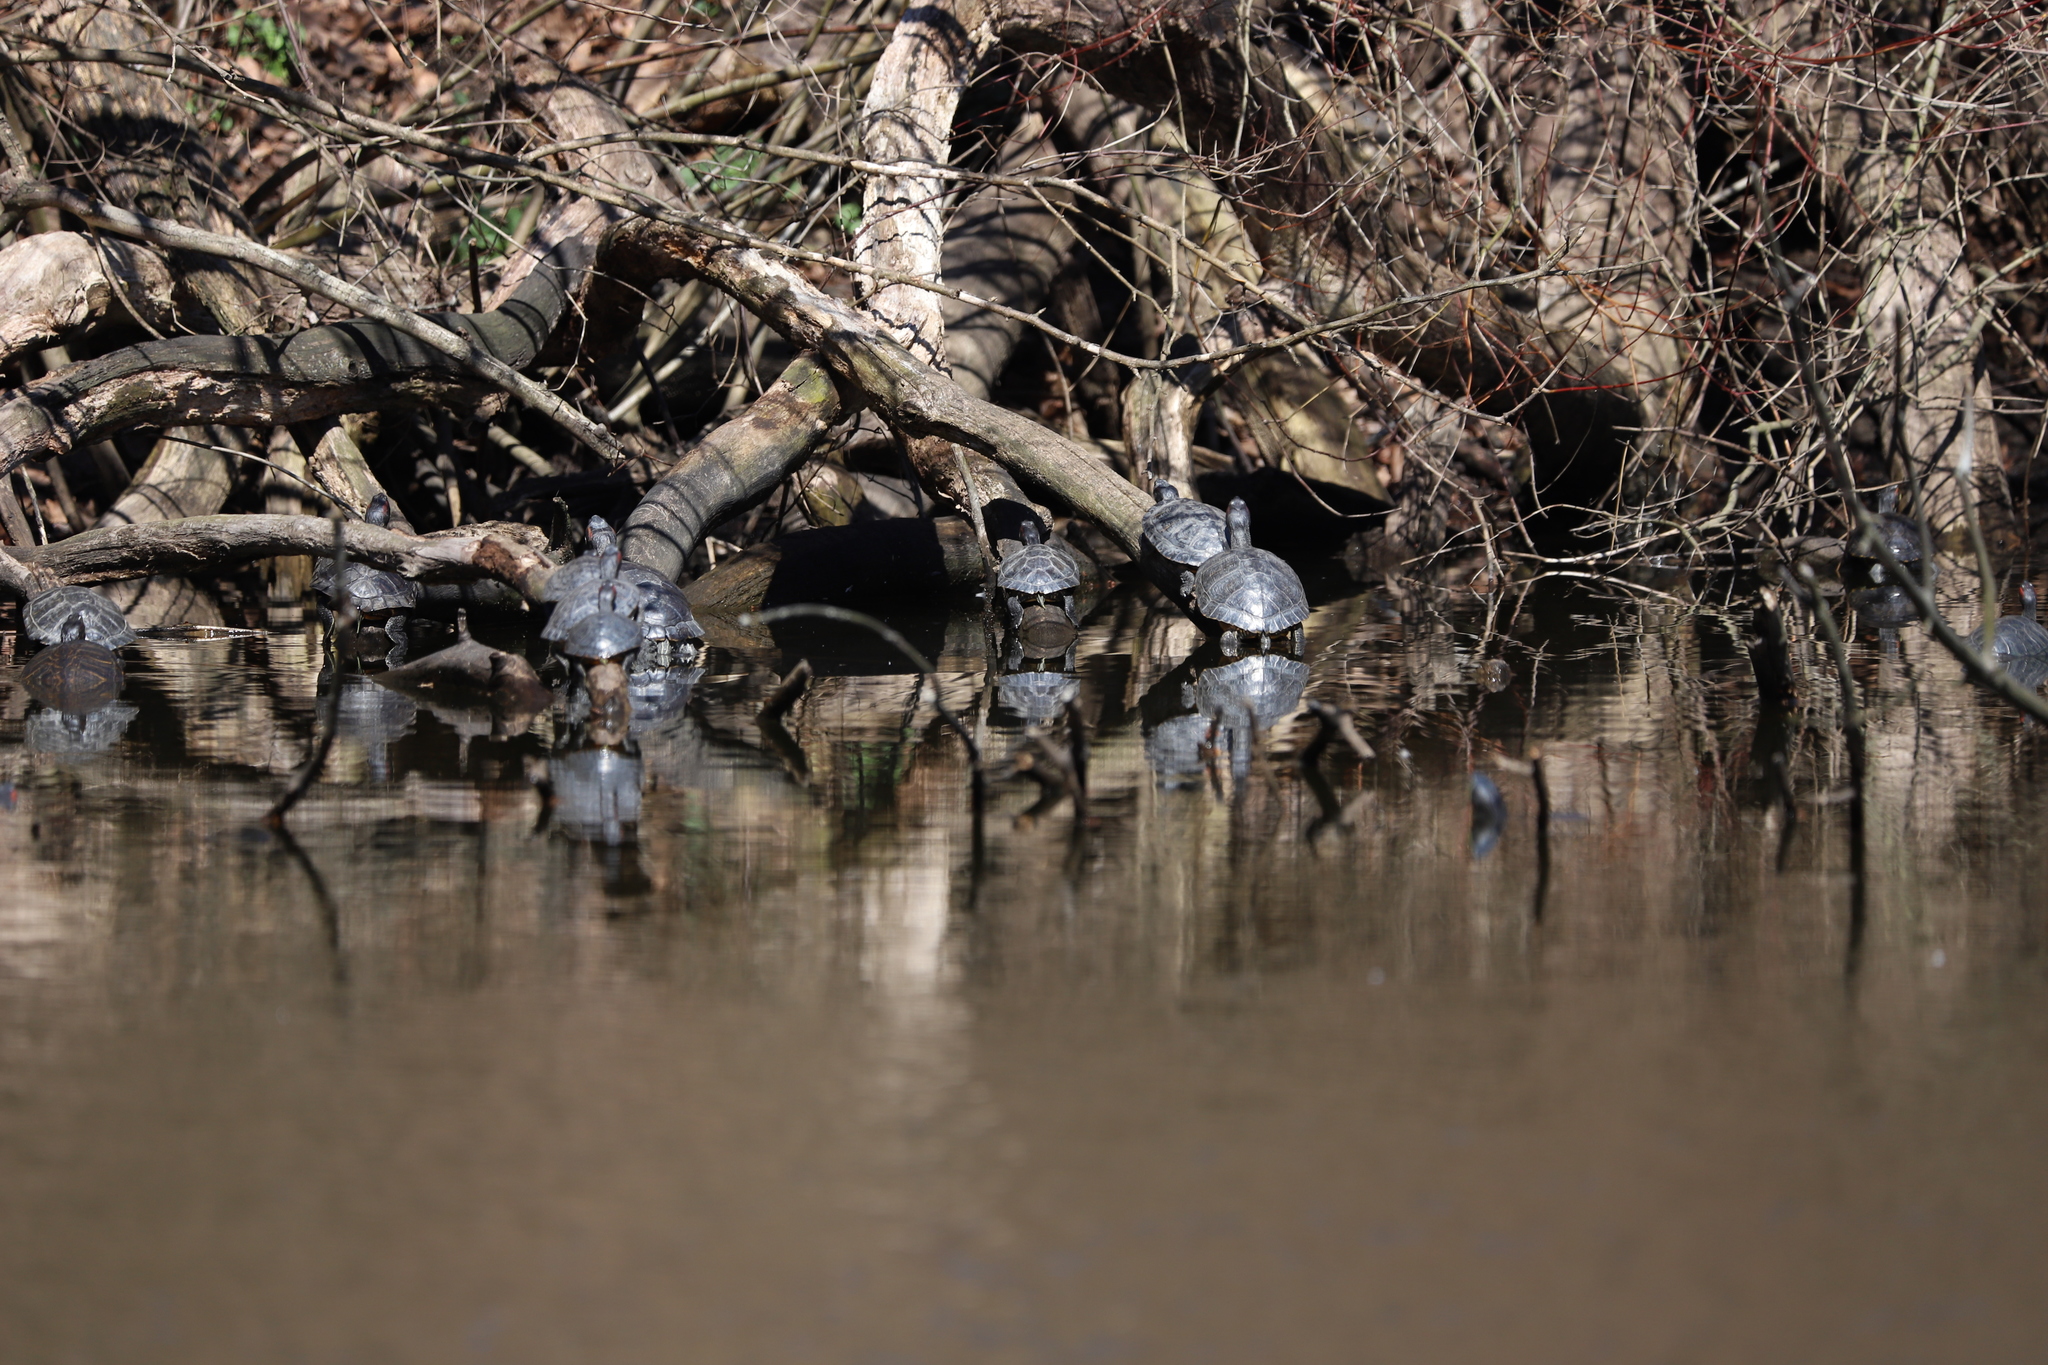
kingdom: Animalia
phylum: Chordata
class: Testudines
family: Emydidae
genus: Trachemys
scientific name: Trachemys scripta
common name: Slider
